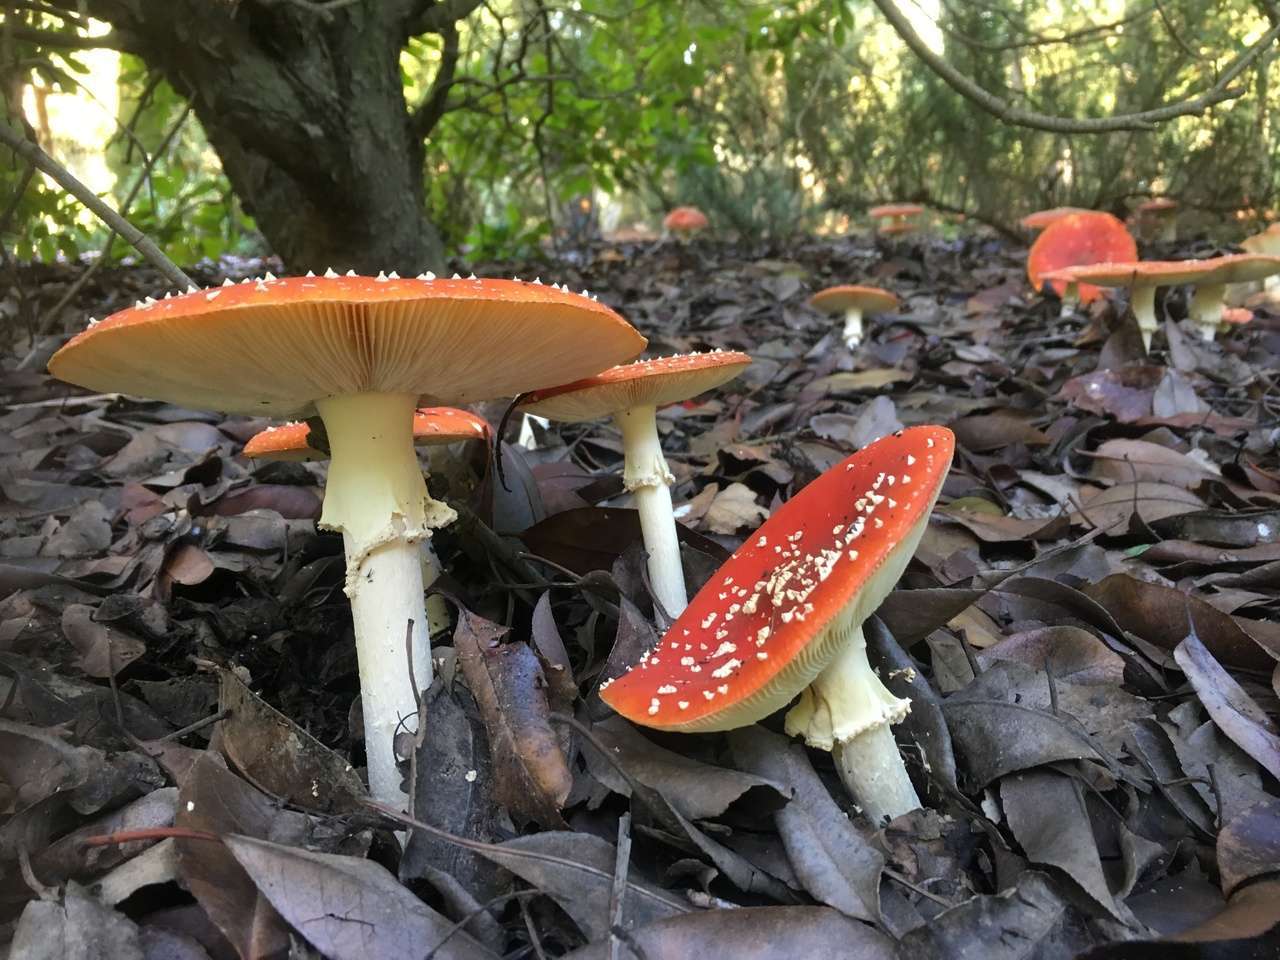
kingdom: Fungi
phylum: Basidiomycota
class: Agaricomycetes
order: Agaricales
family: Amanitaceae
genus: Amanita
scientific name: Amanita muscaria
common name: Fly agaric
